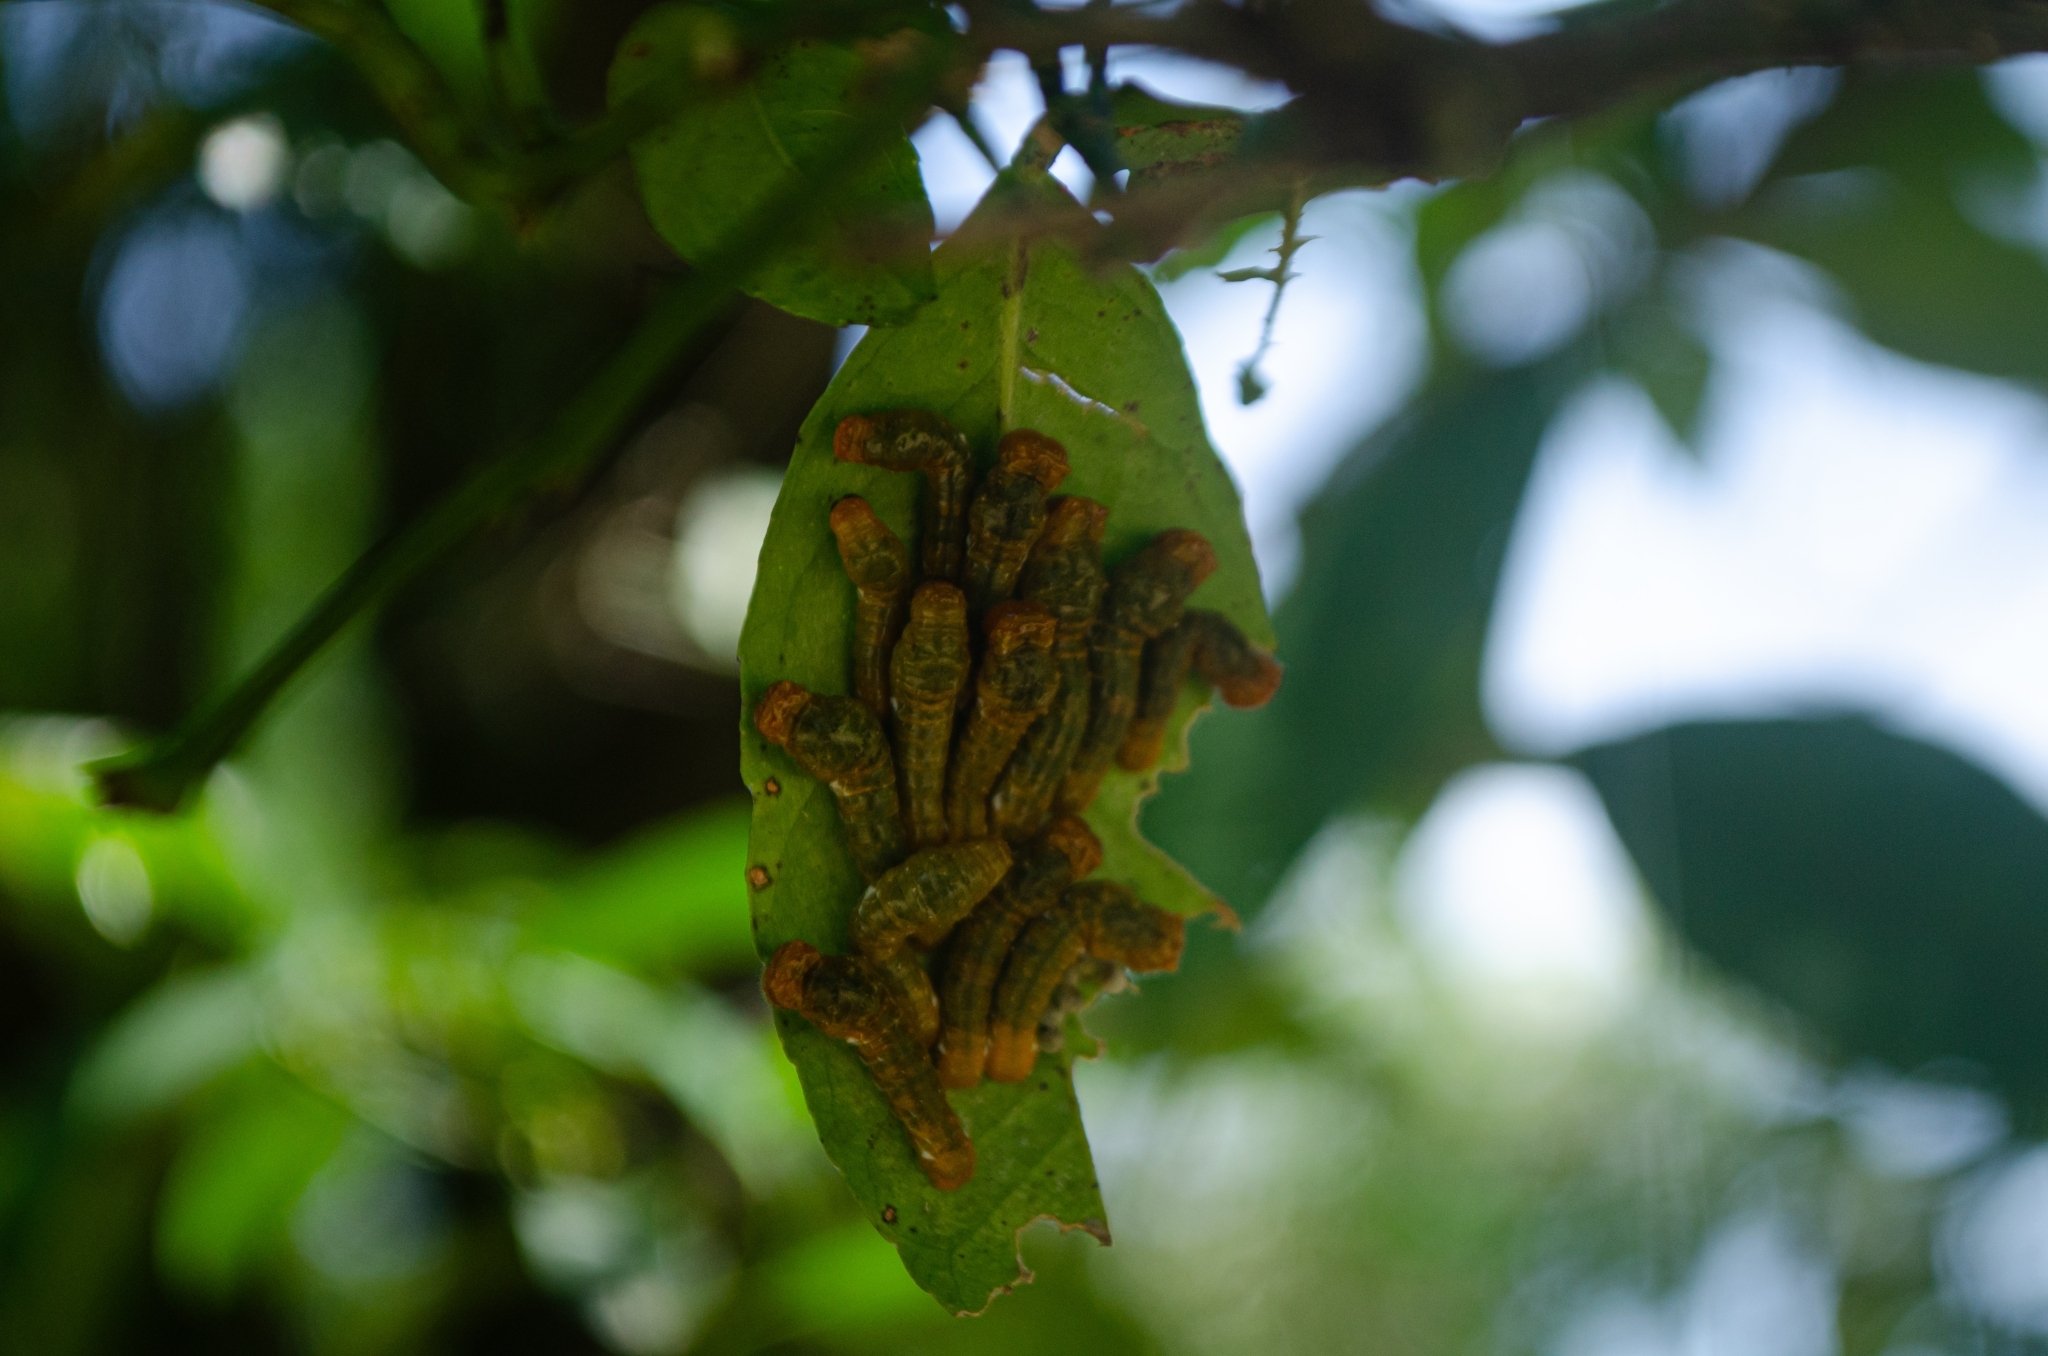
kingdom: Animalia
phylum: Arthropoda
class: Insecta
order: Lepidoptera
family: Papilionidae
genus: Papilio
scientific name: Papilio anchisiades
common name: Idaes swallowtail
